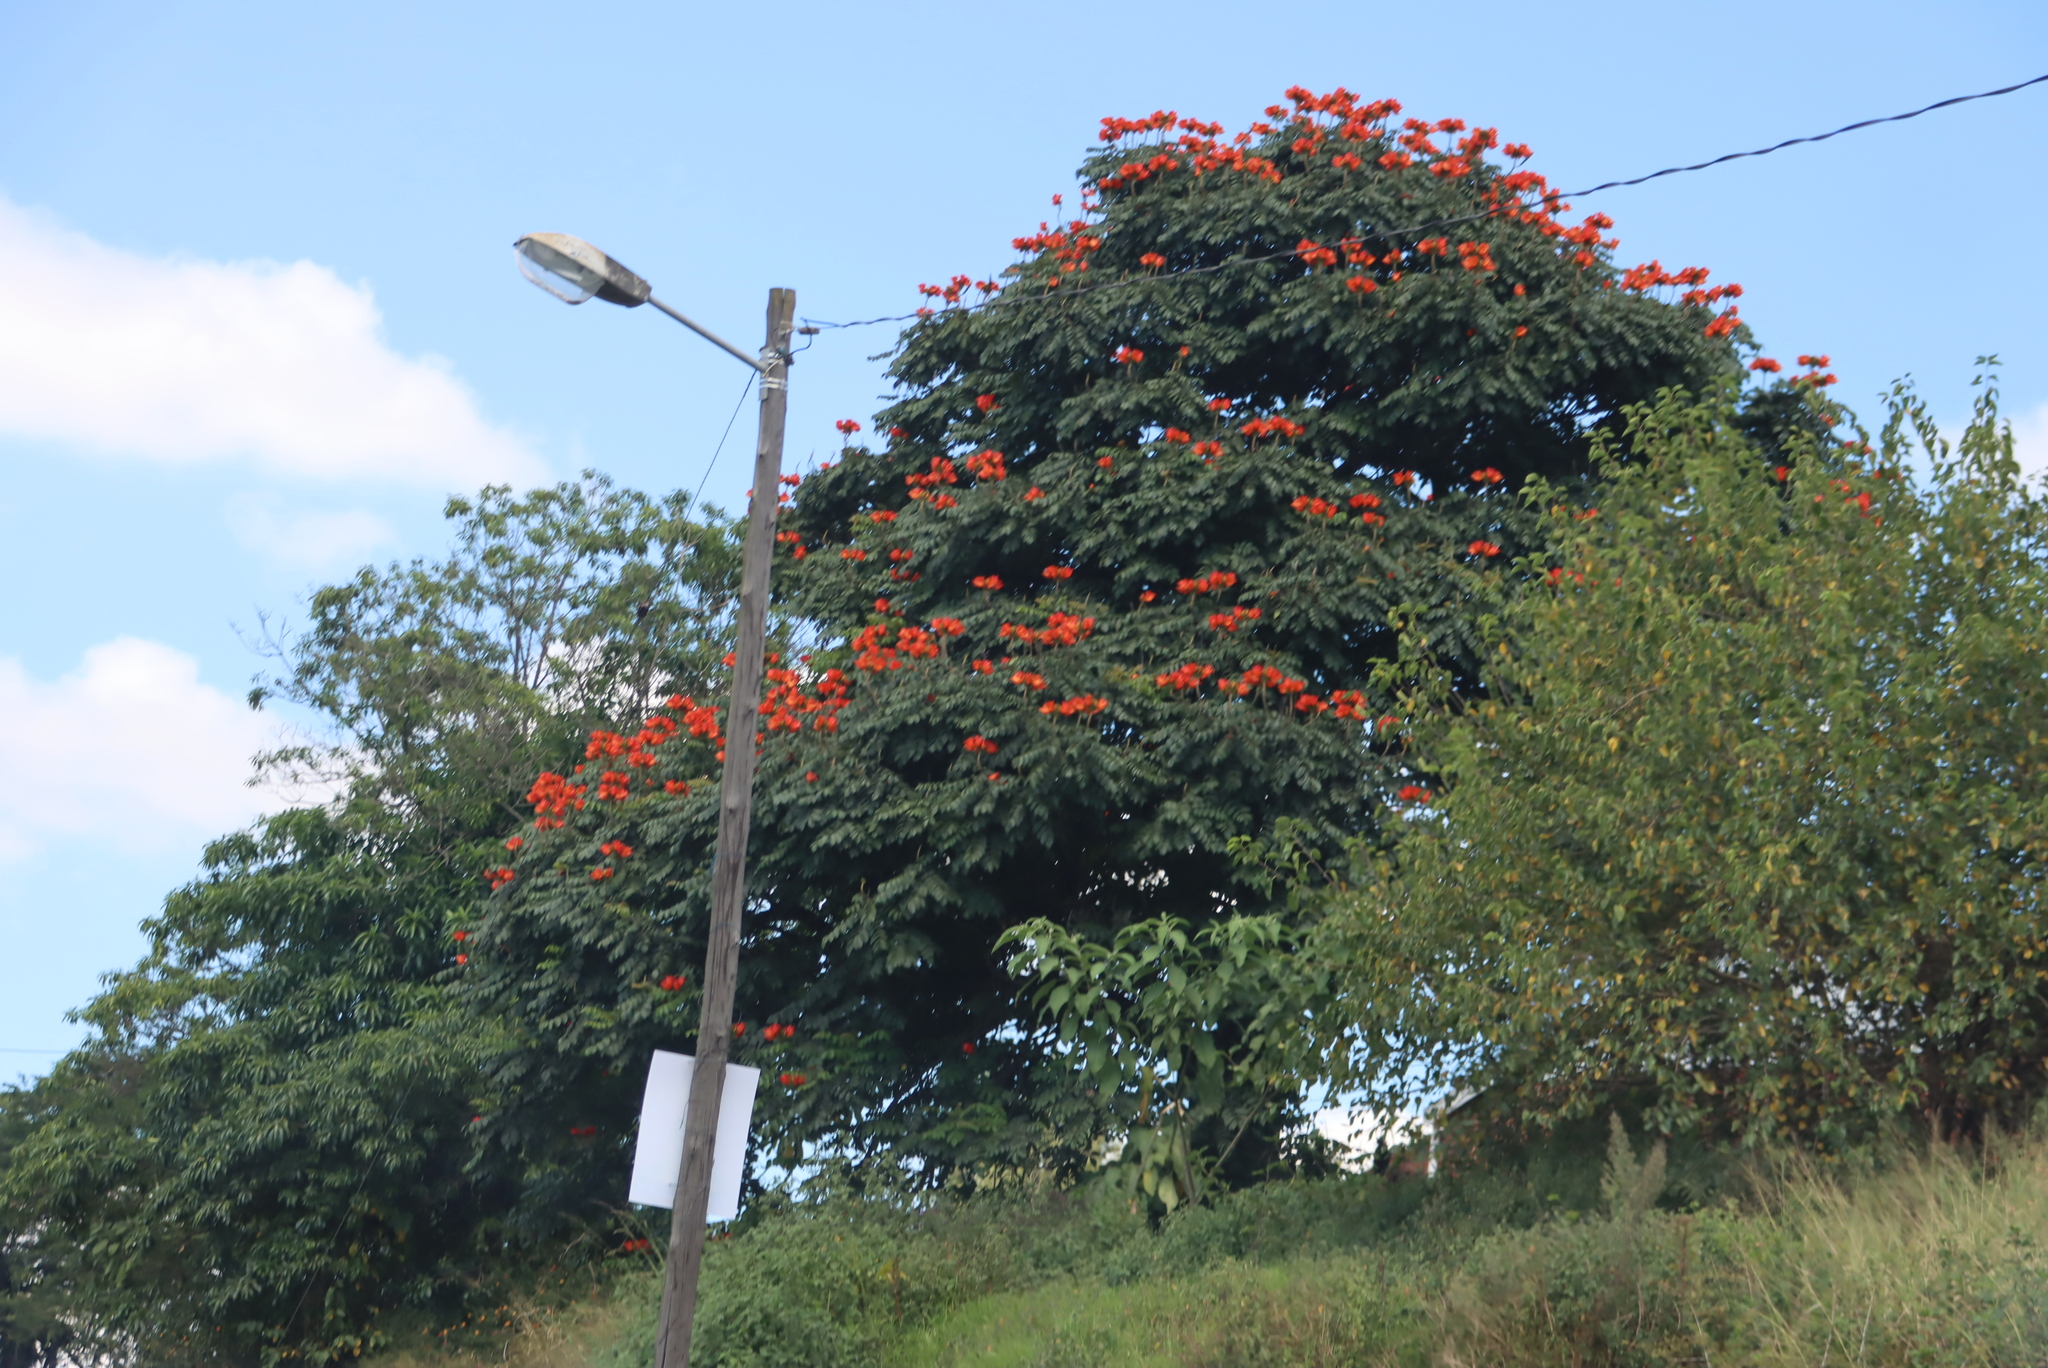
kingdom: Plantae
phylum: Tracheophyta
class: Magnoliopsida
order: Lamiales
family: Bignoniaceae
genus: Spathodea
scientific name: Spathodea campanulata
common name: African tuliptree
